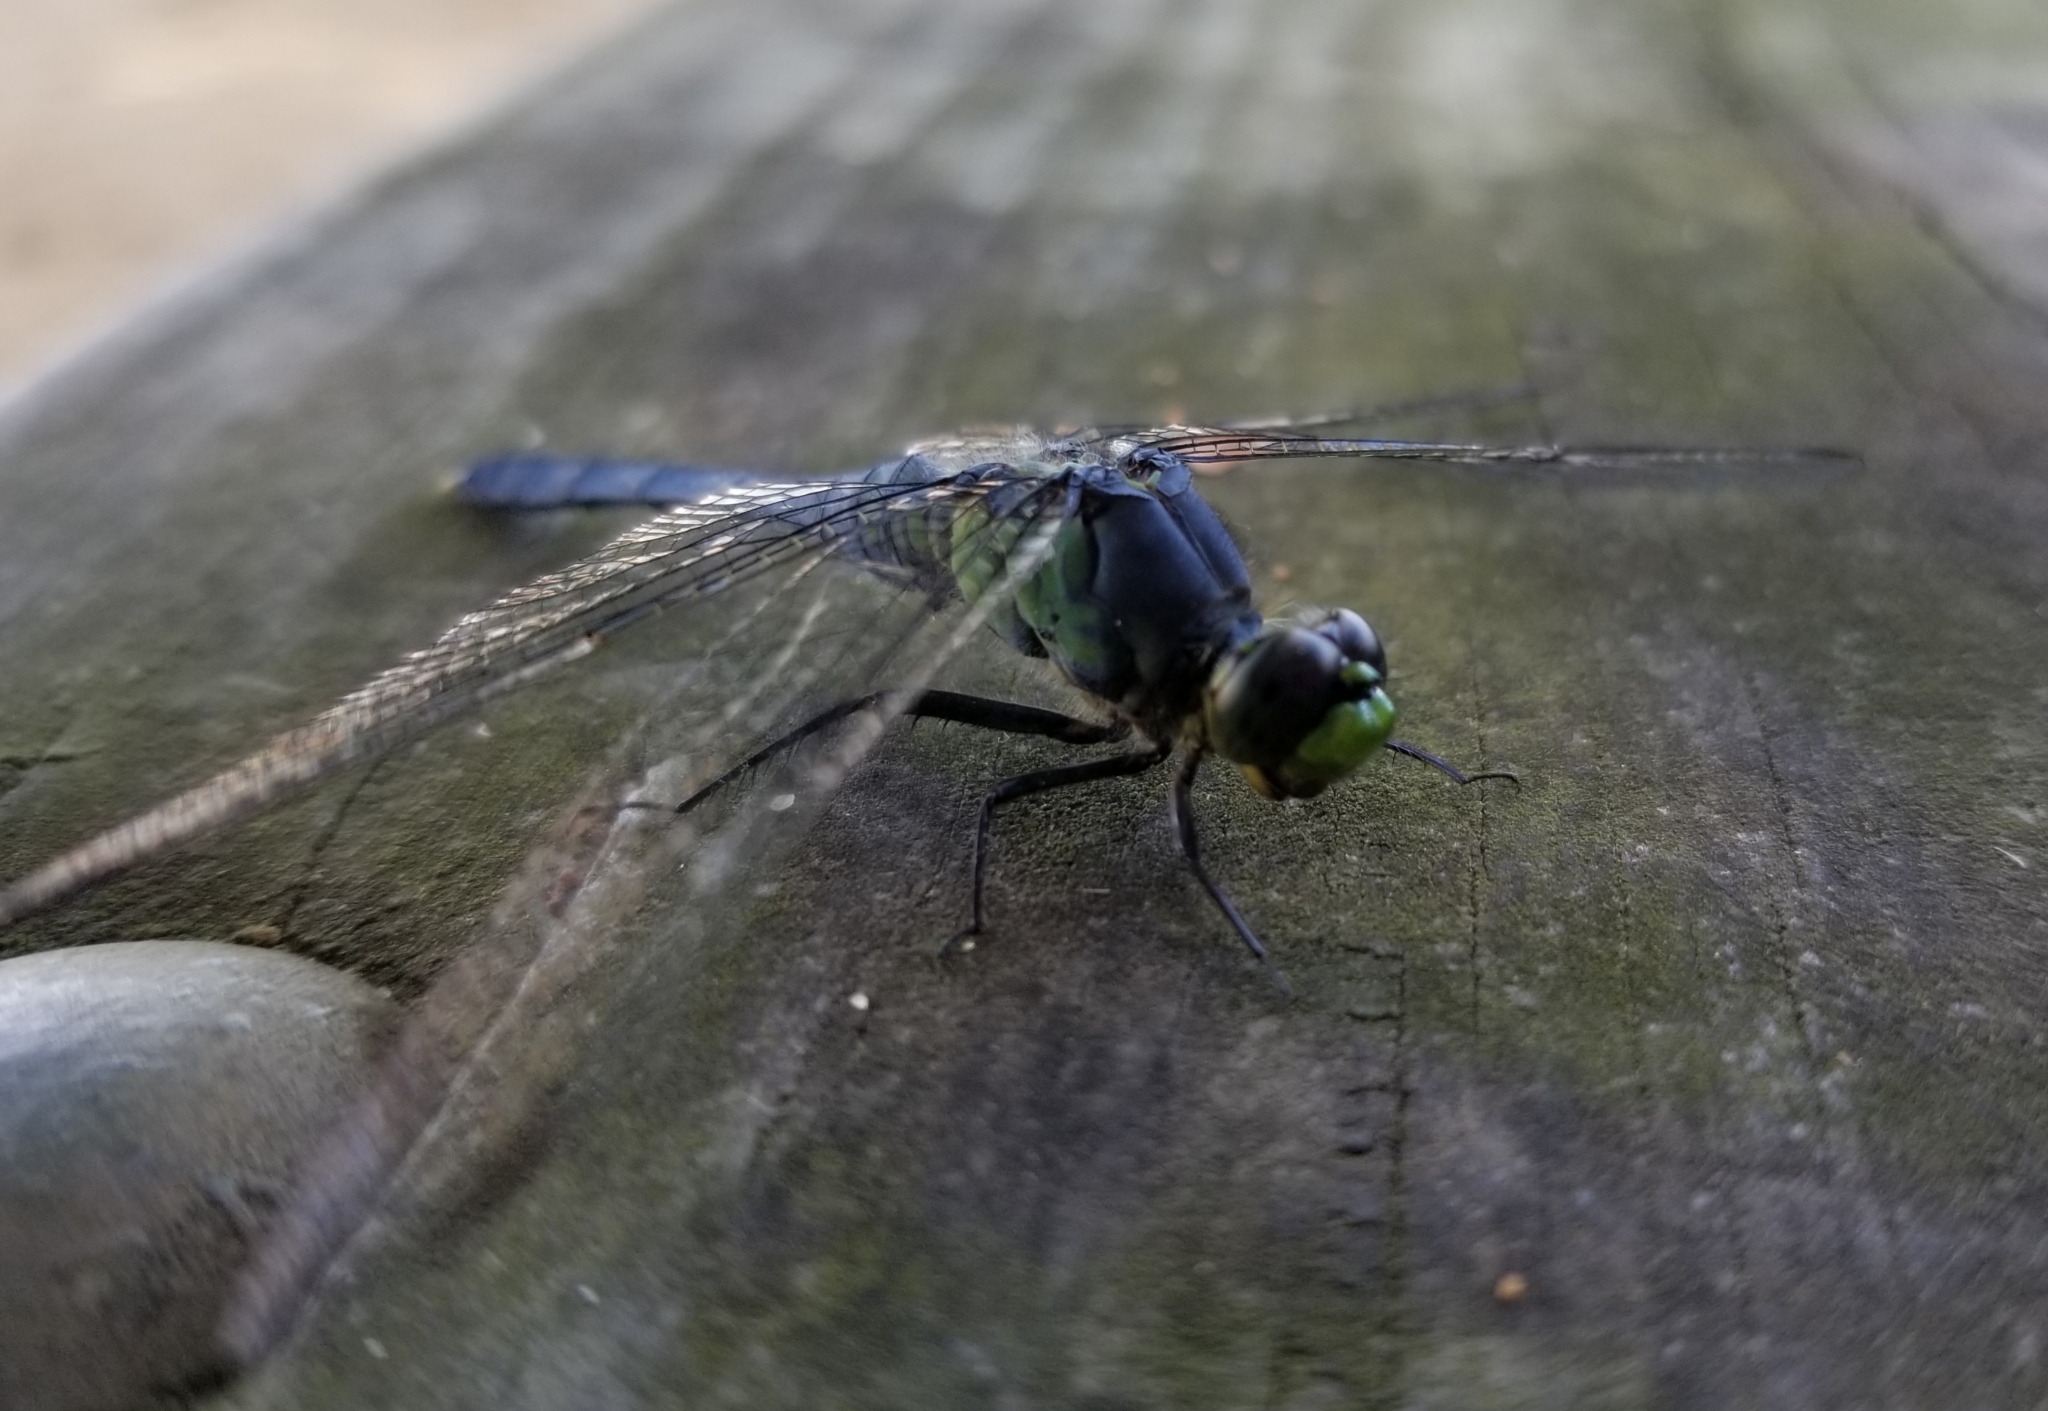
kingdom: Animalia
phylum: Arthropoda
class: Insecta
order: Odonata
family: Libellulidae
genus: Erythemis
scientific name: Erythemis simplicicollis
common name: Eastern pondhawk
